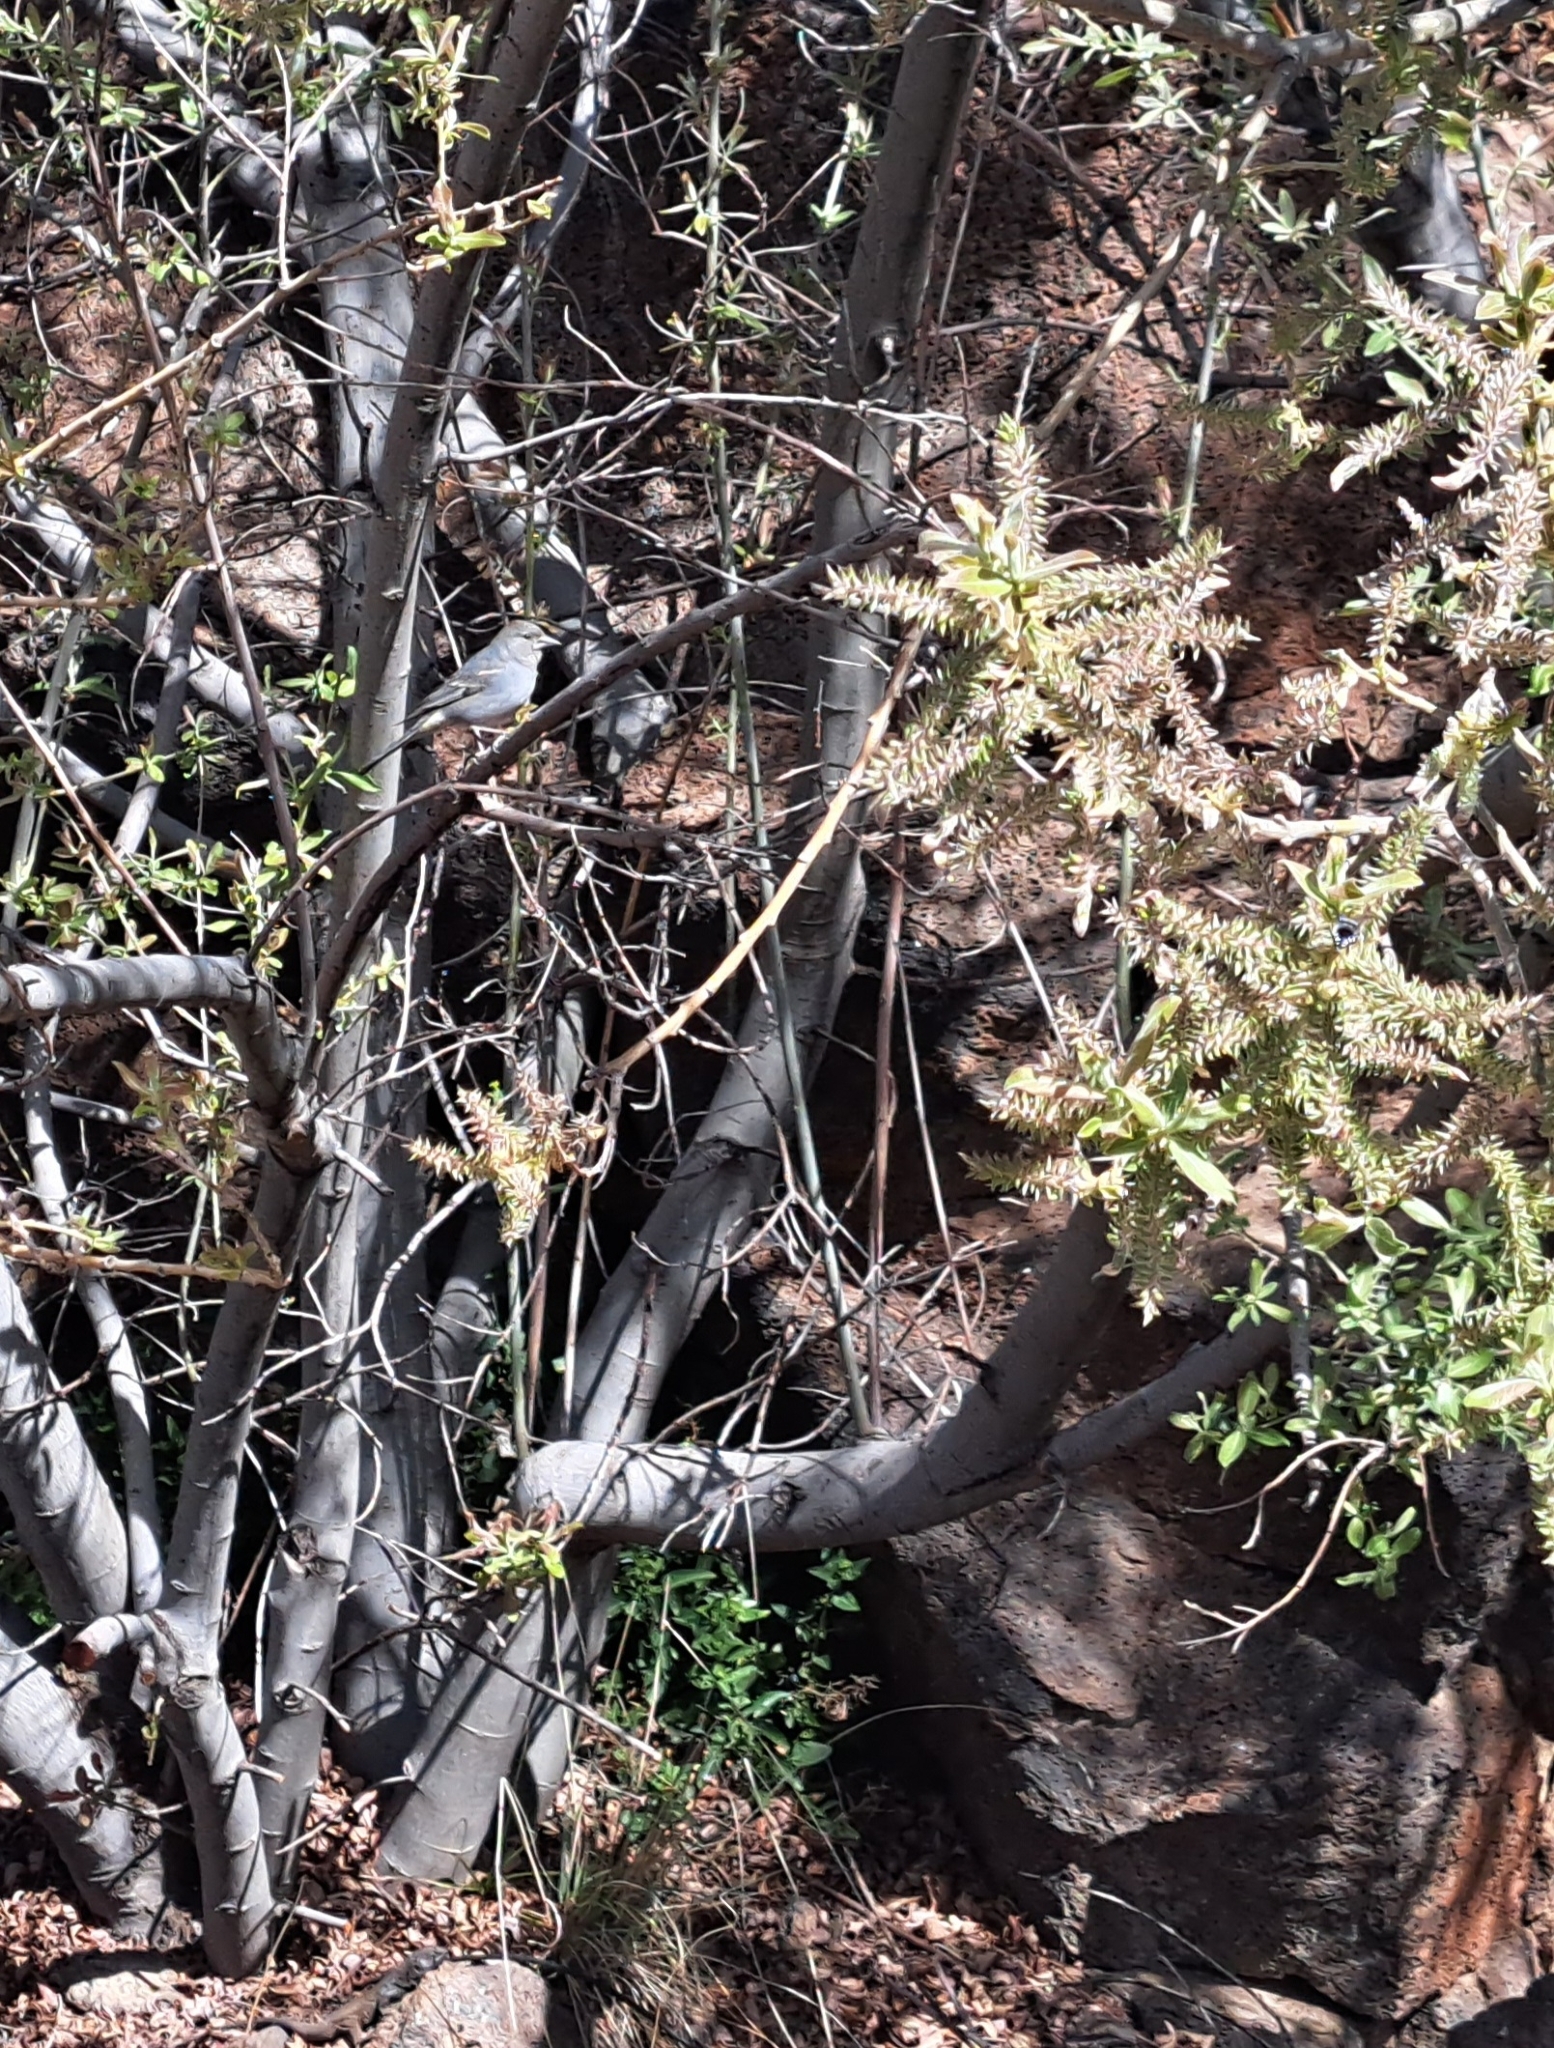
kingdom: Animalia
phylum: Chordata
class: Aves
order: Passeriformes
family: Fringillidae
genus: Fringilla
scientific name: Fringilla teydea
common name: Blue chaffinch
